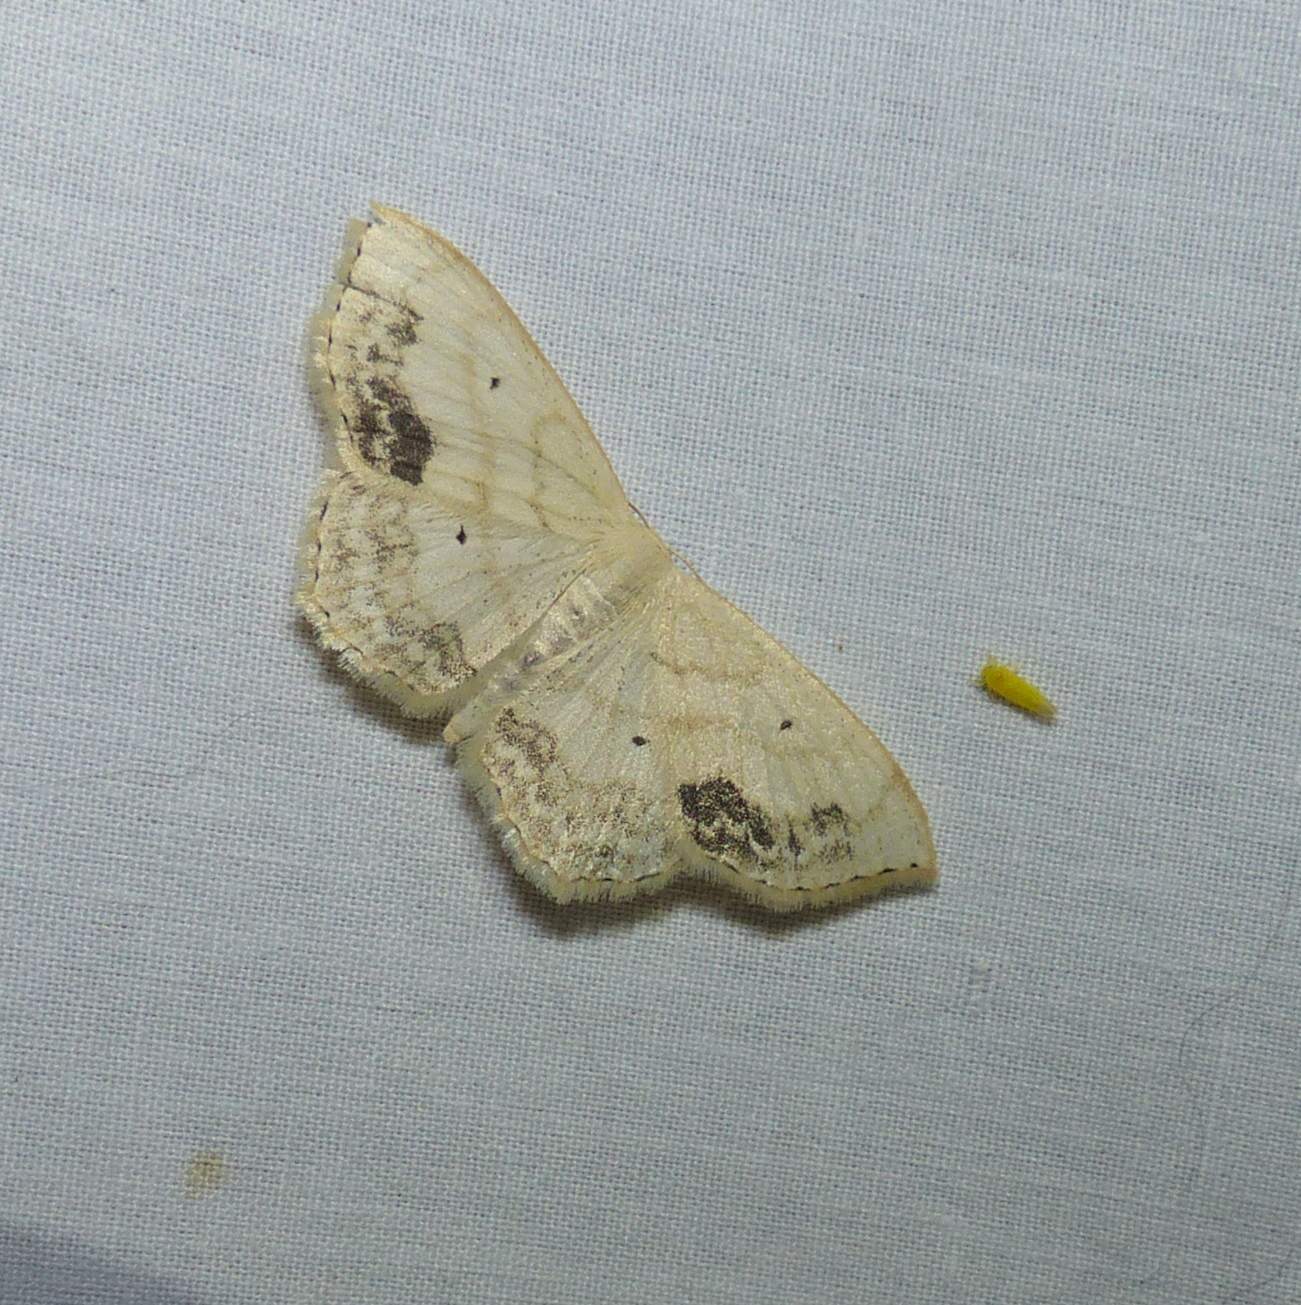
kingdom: Animalia
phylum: Arthropoda
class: Insecta
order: Lepidoptera
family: Geometridae
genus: Scopula
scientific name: Scopula limboundata
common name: Large lace border
